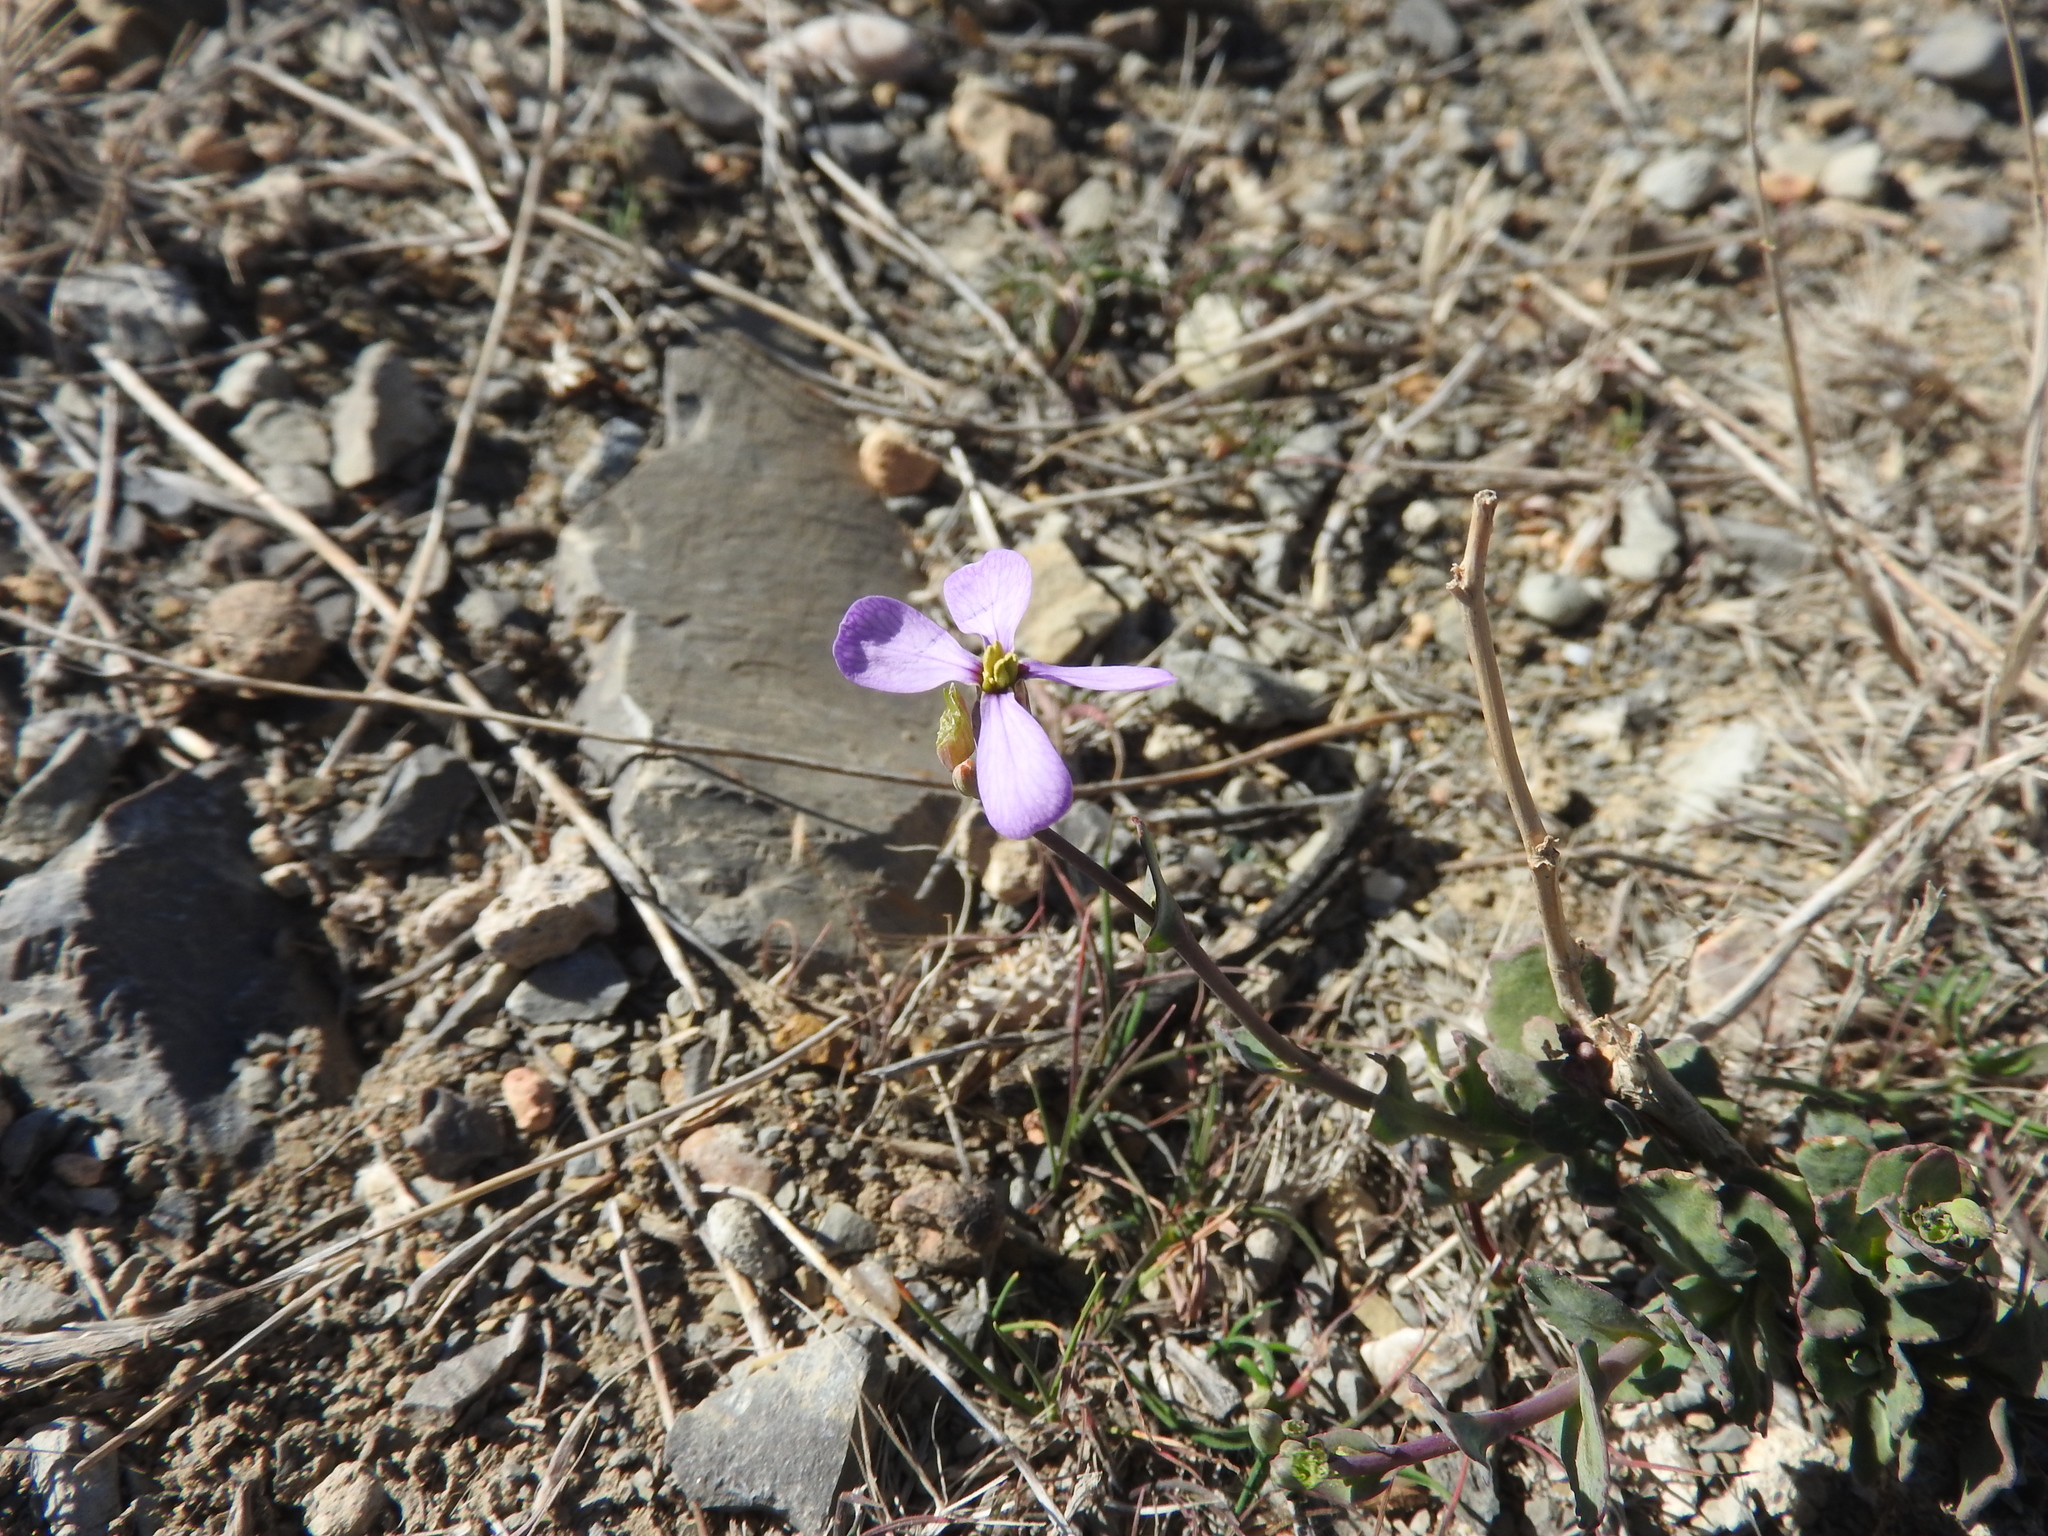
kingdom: Plantae
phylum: Tracheophyta
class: Magnoliopsida
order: Brassicales
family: Brassicaceae
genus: Moricandia
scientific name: Moricandia suffruticosa
